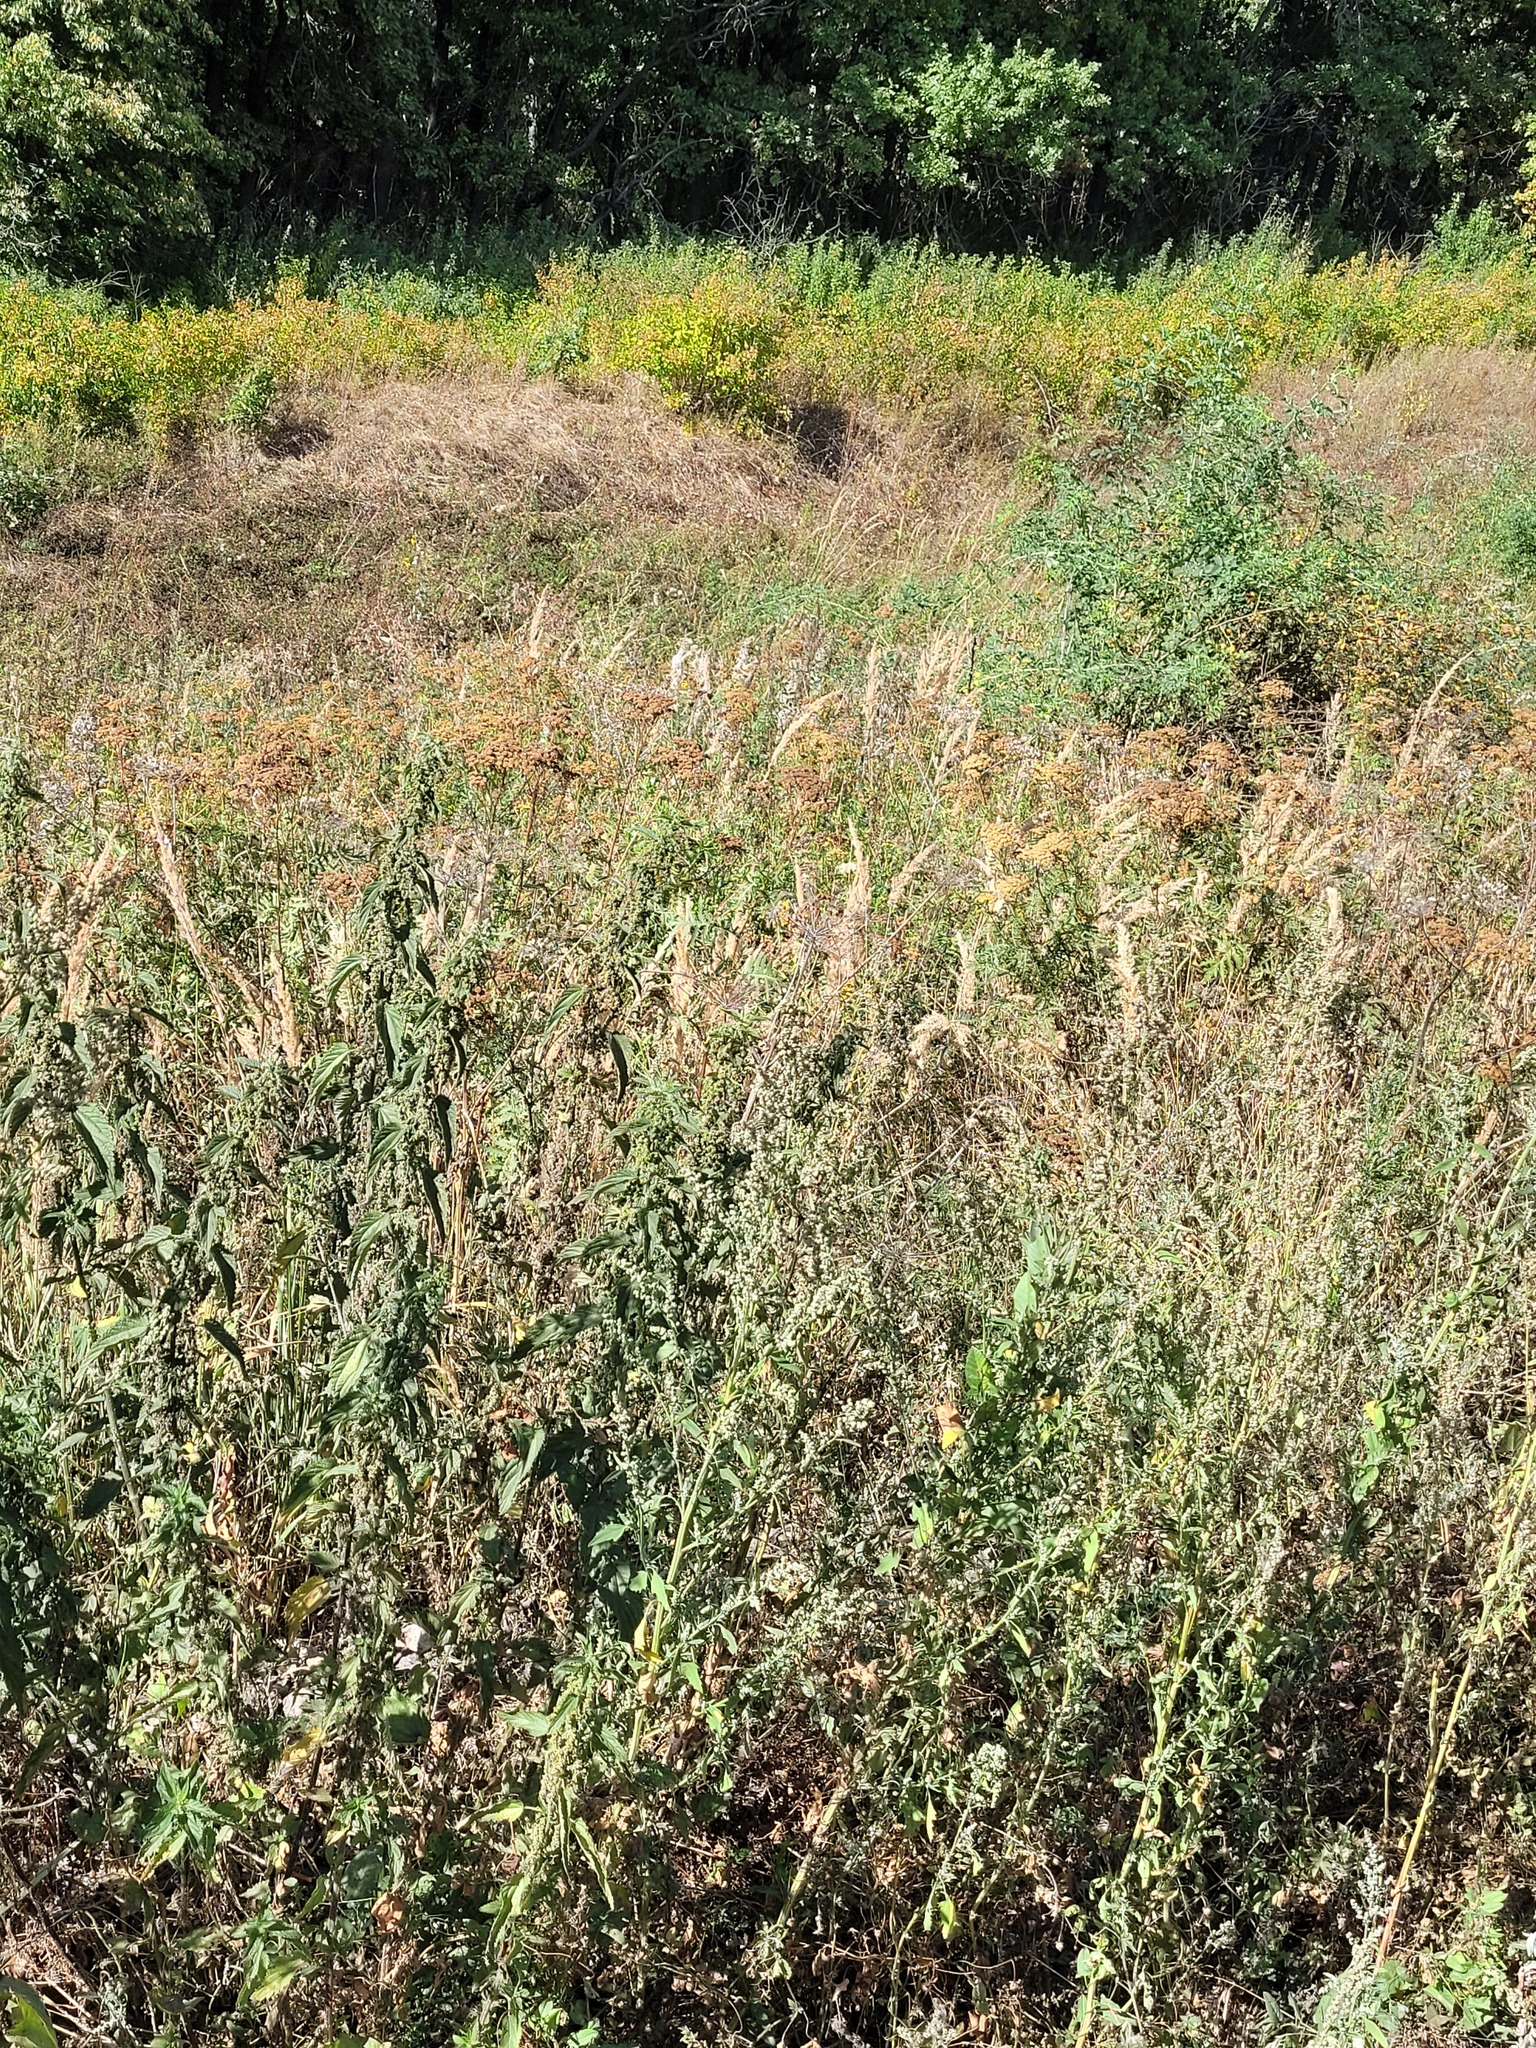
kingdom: Plantae
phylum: Tracheophyta
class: Magnoliopsida
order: Rosales
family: Urticaceae
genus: Urtica
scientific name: Urtica dioica
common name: Common nettle
